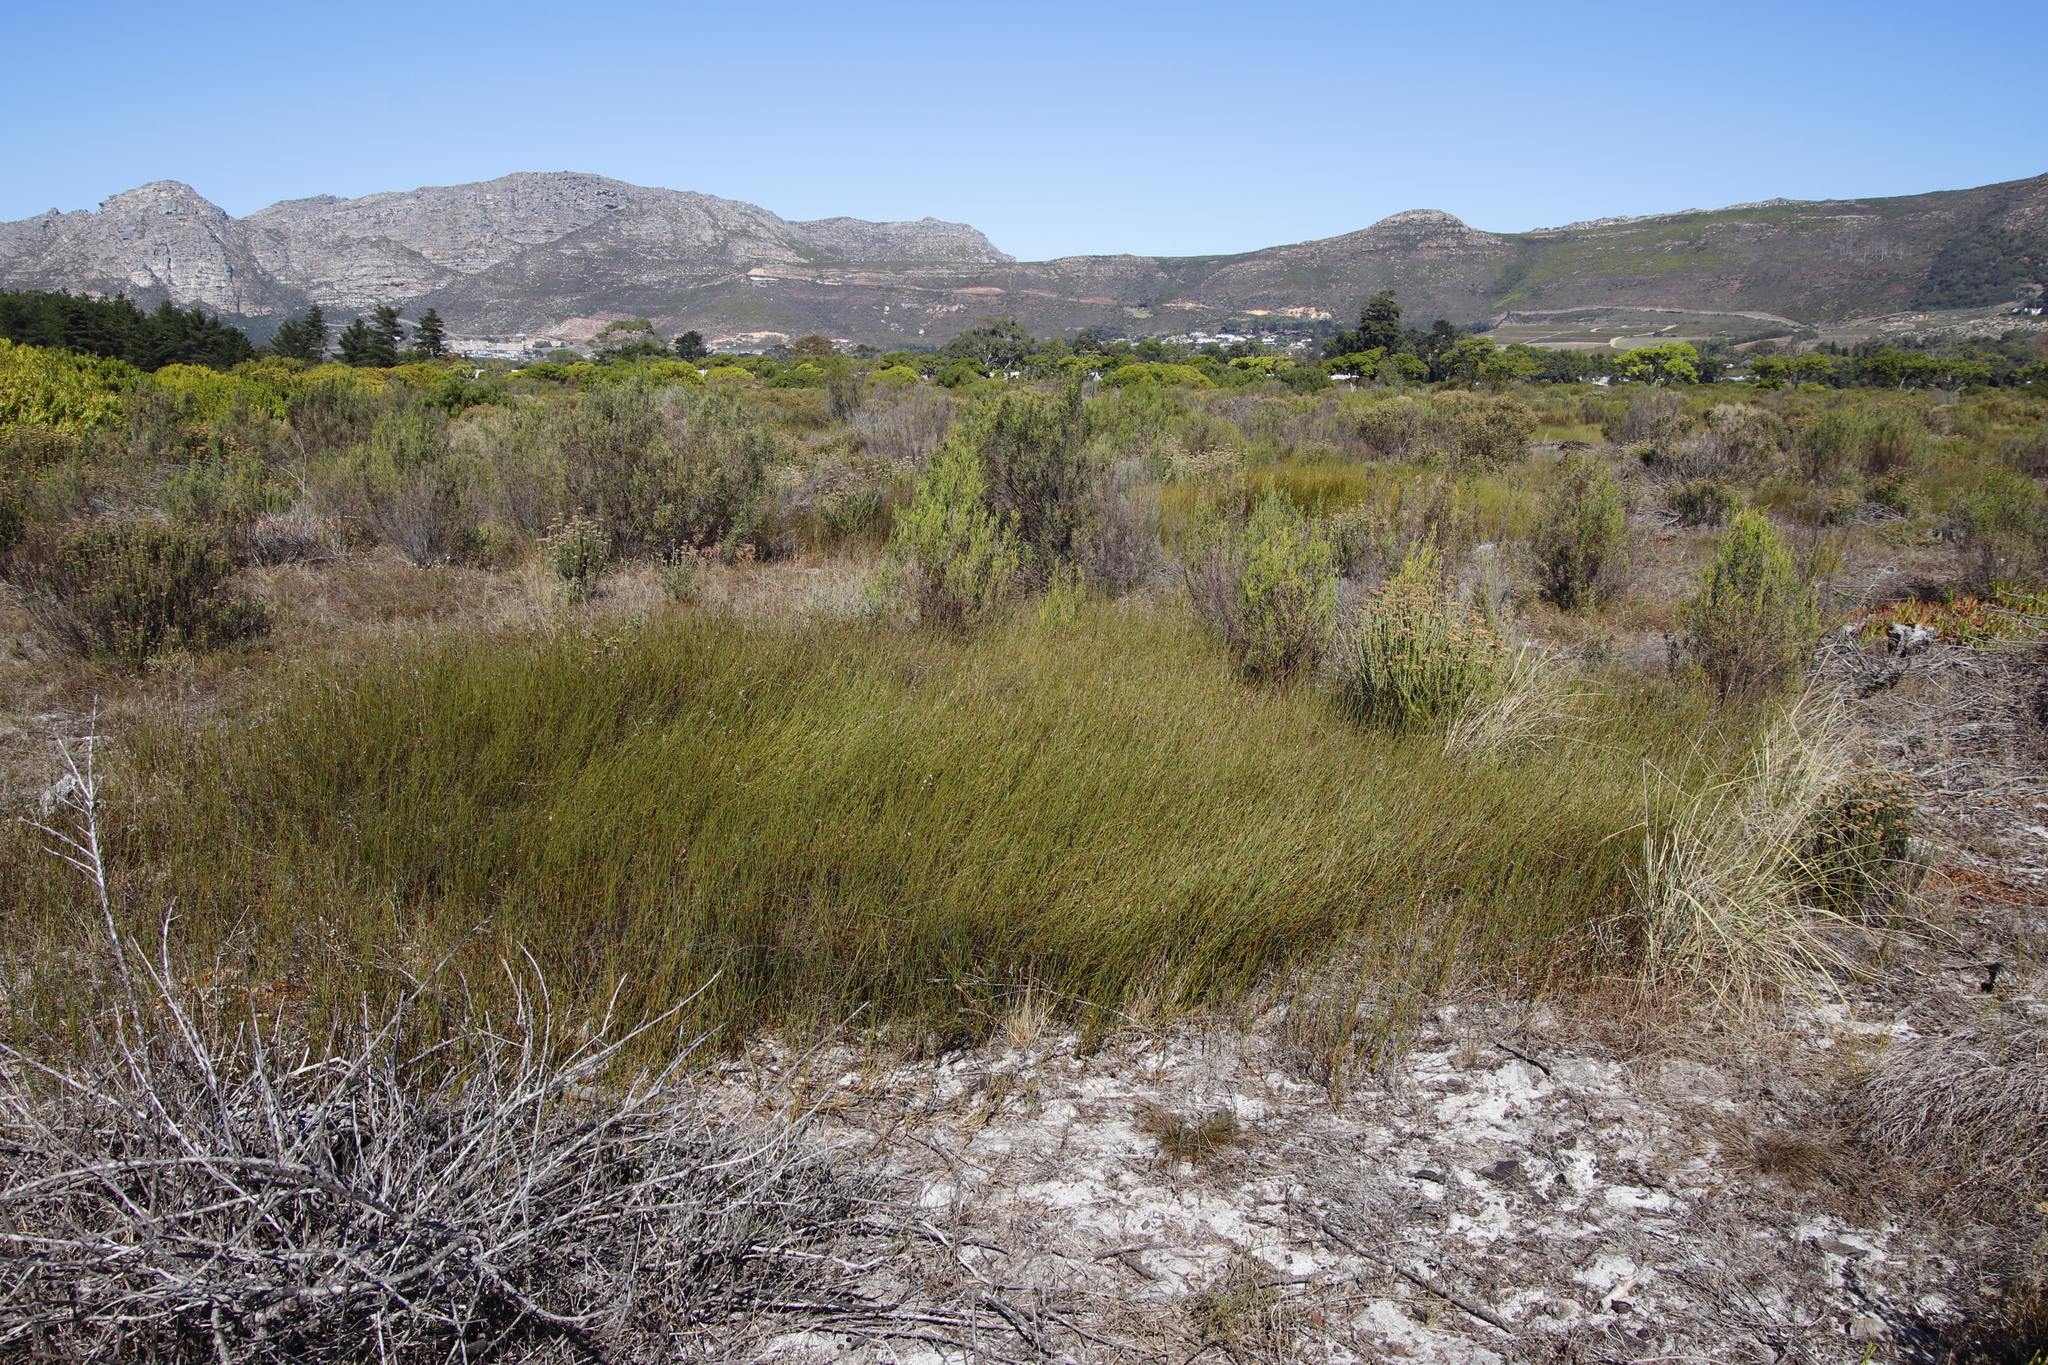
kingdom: Plantae
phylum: Tracheophyta
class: Liliopsida
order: Poales
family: Restionaceae
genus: Willdenowia
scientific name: Willdenowia sulcata
